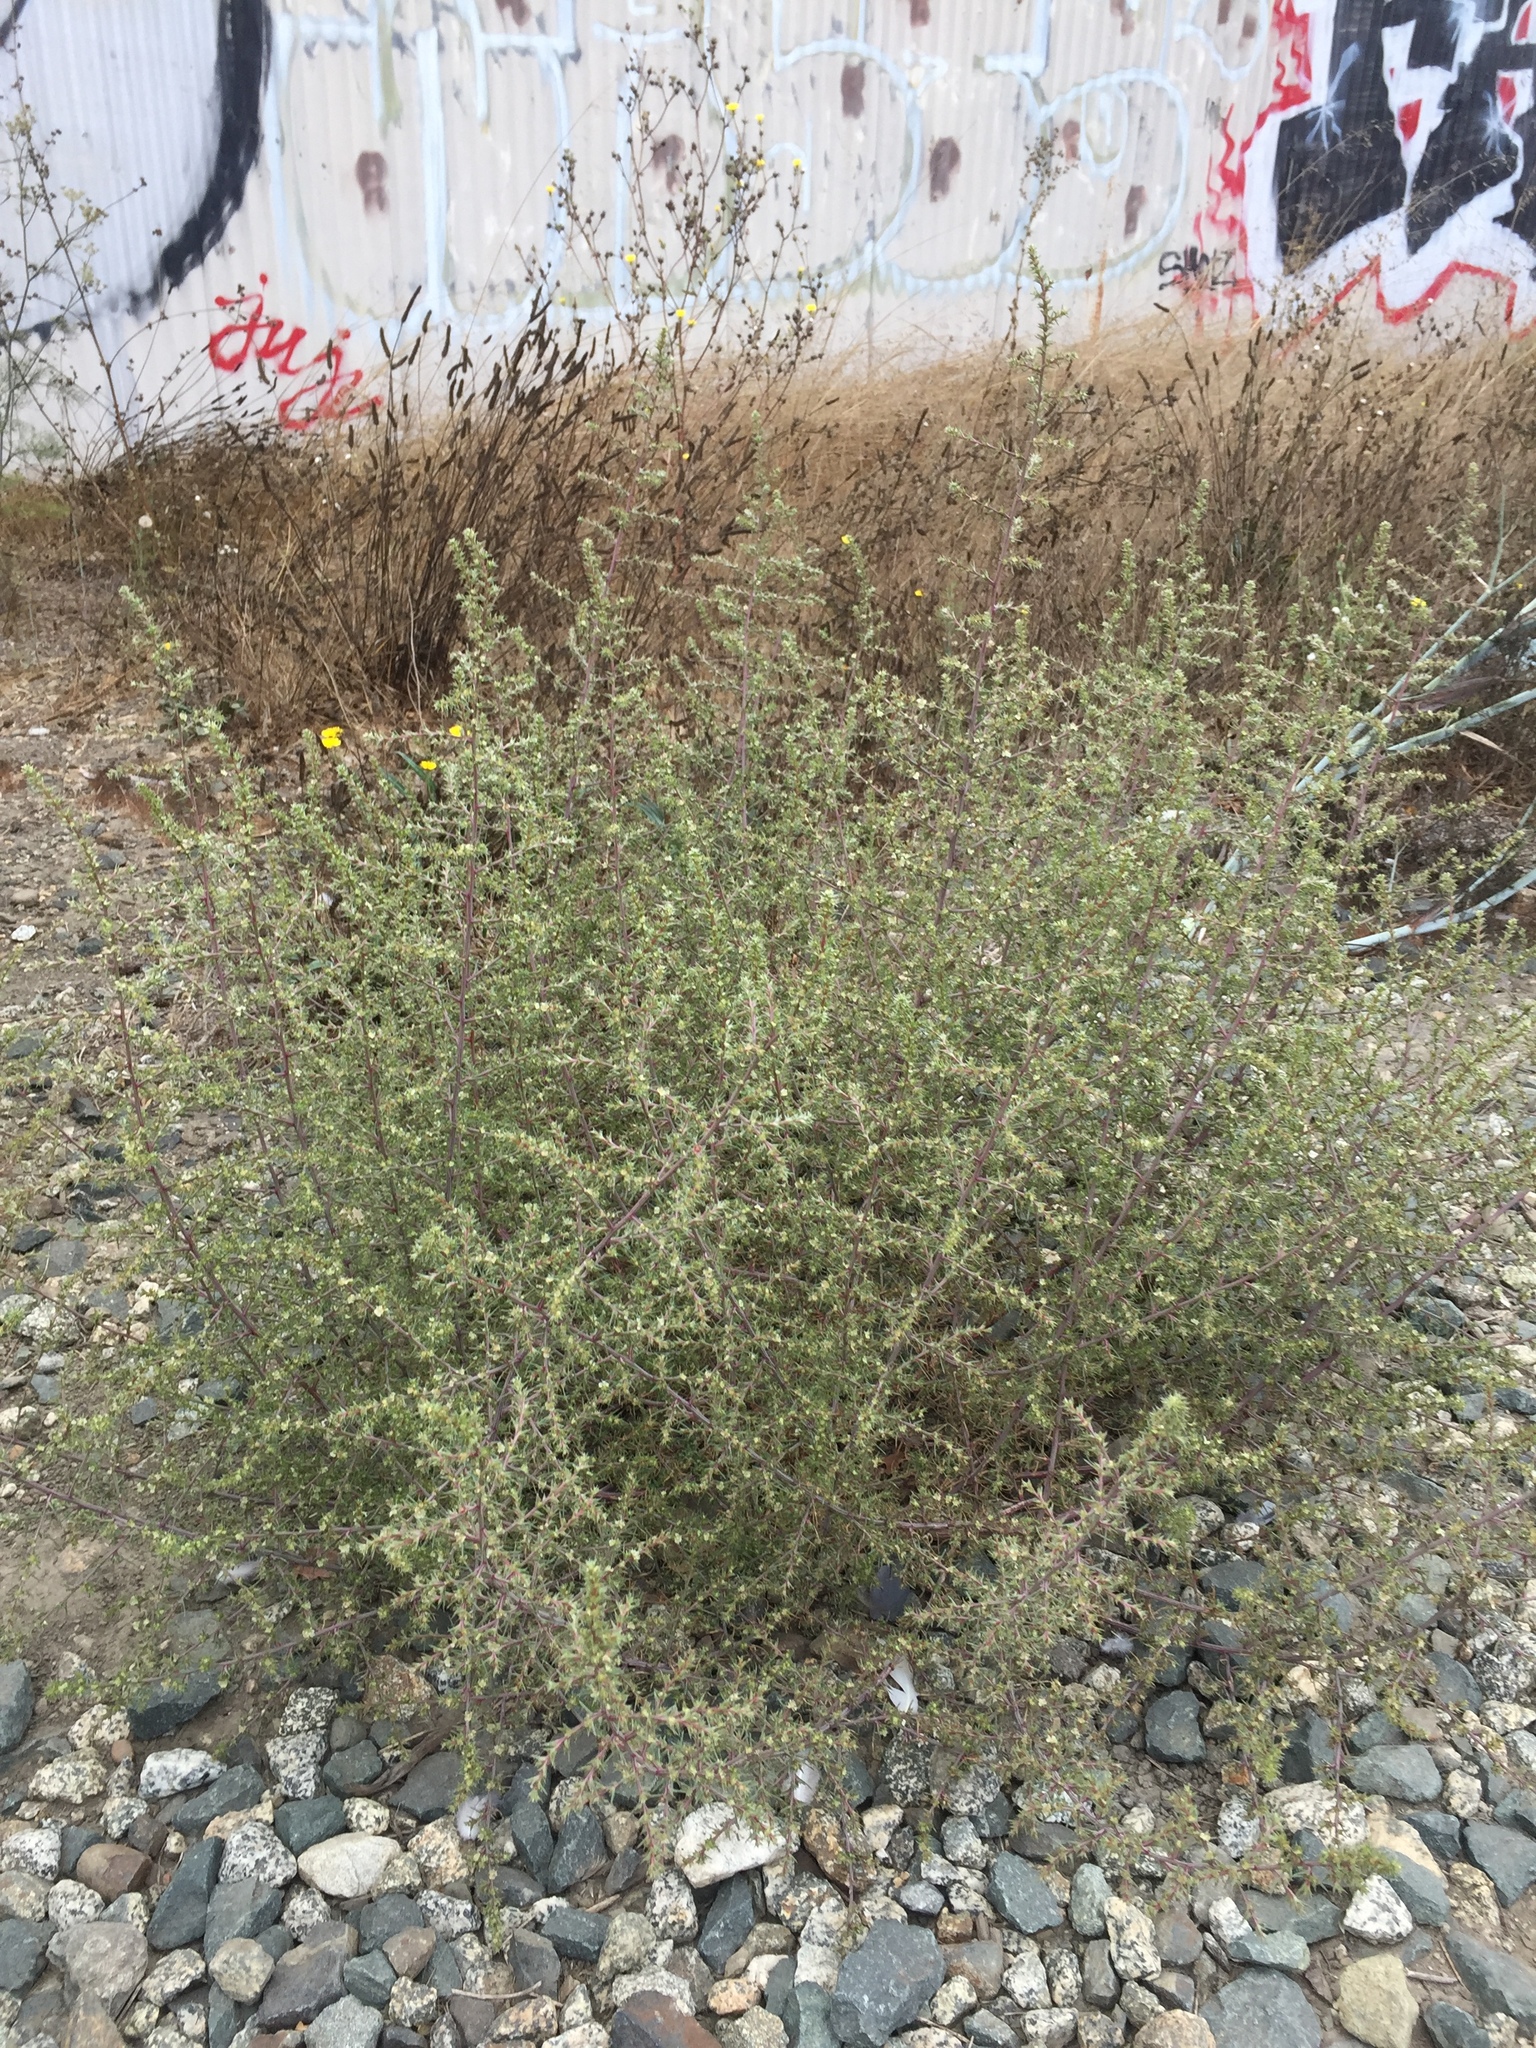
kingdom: Plantae
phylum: Tracheophyta
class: Magnoliopsida
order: Caryophyllales
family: Amaranthaceae
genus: Salsola
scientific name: Salsola tragus
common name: Prickly russian thistle
